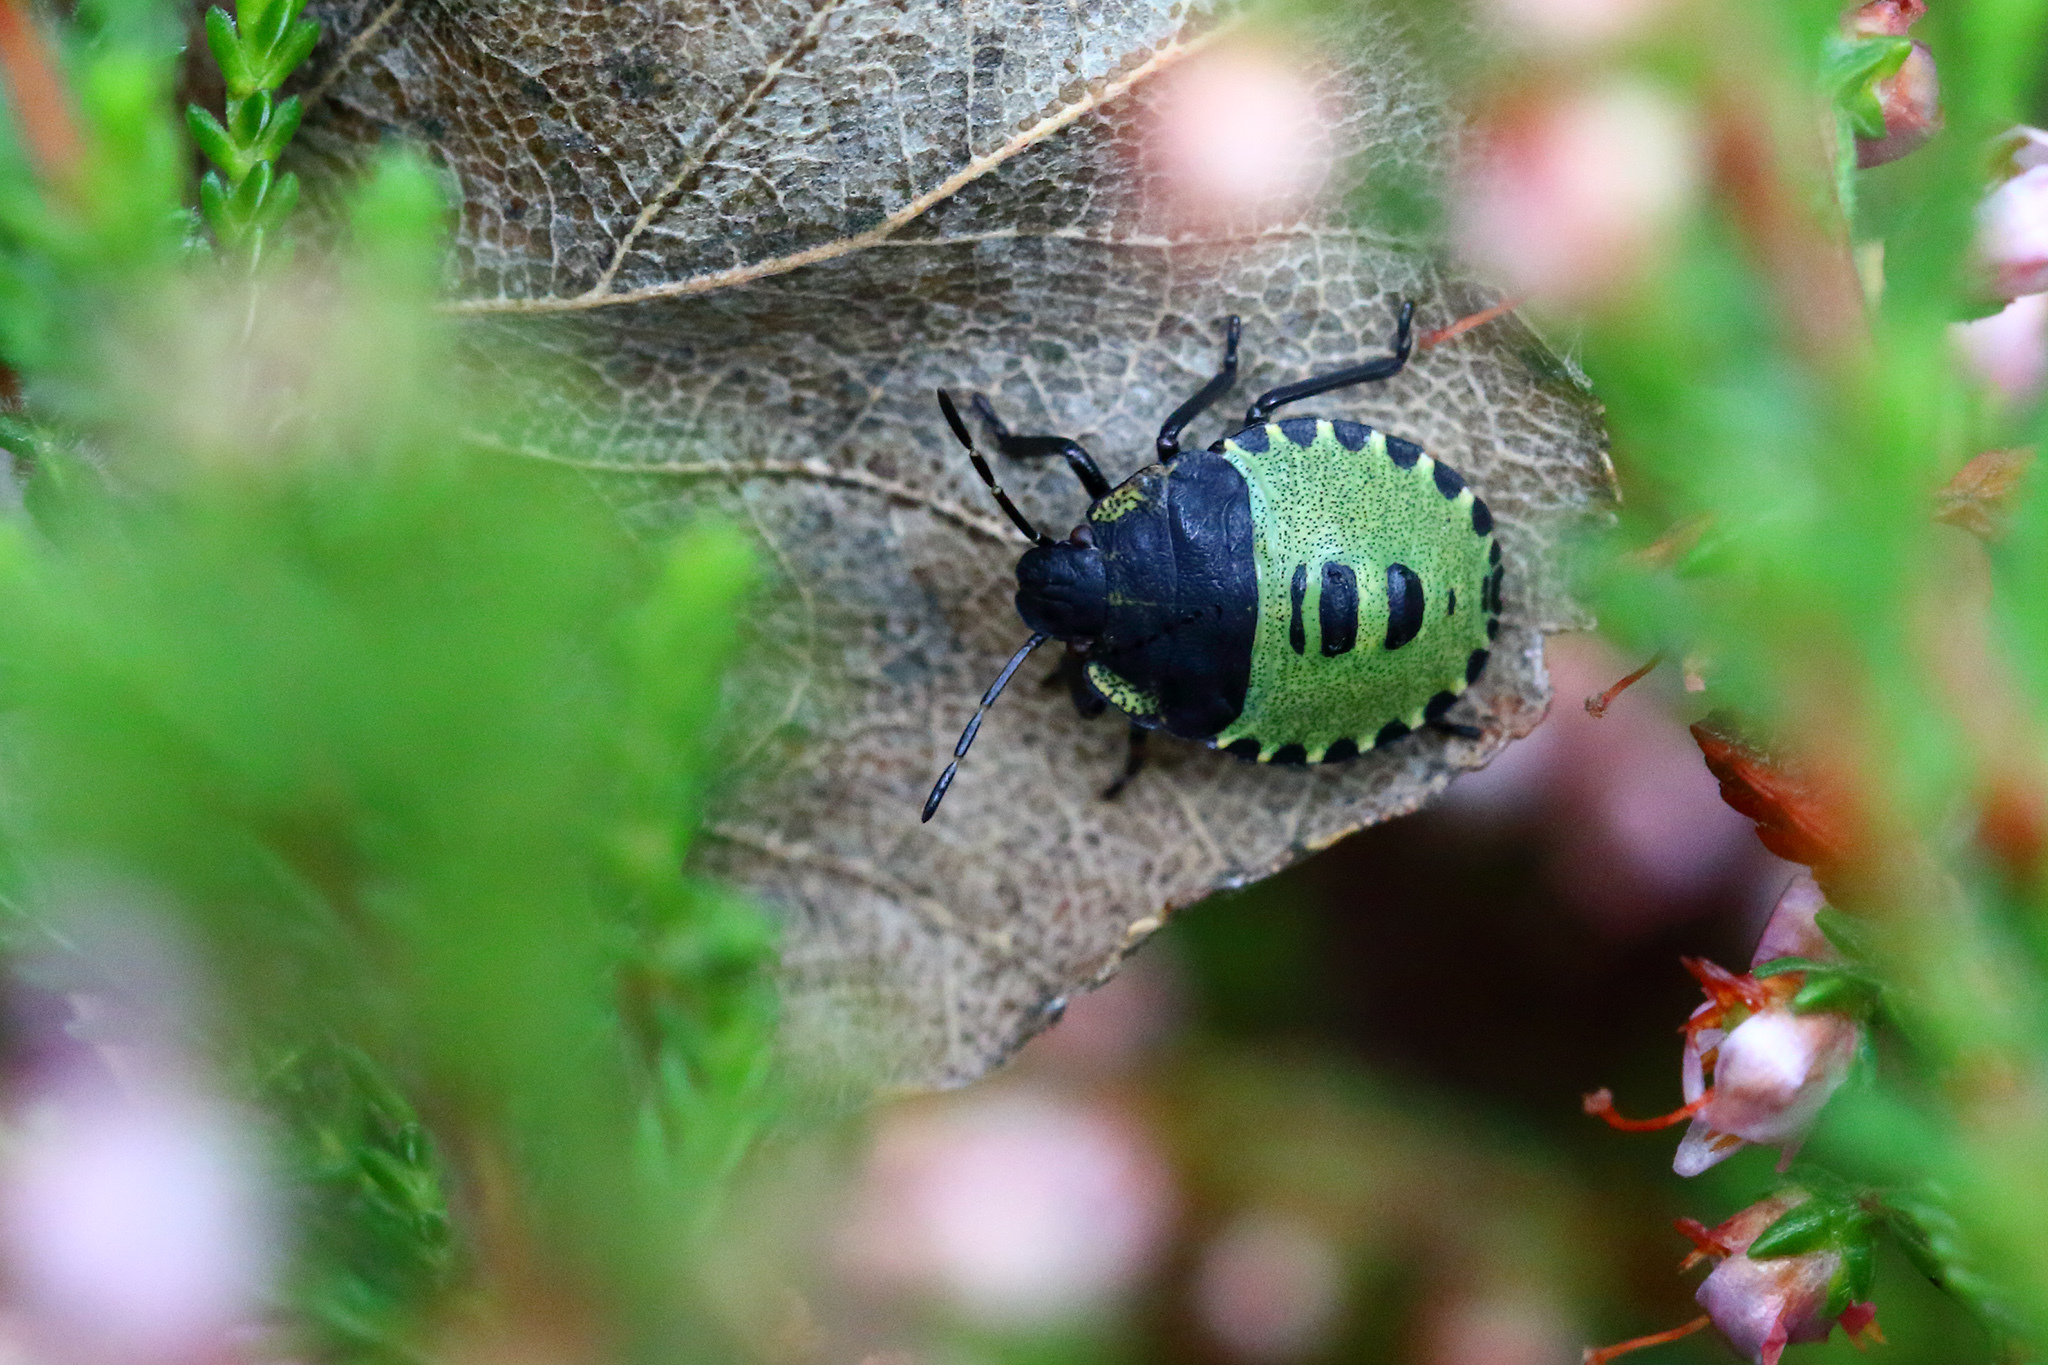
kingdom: Animalia
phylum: Arthropoda
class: Insecta
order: Hemiptera
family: Pentatomidae
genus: Palomena
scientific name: Palomena prasina
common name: Green shieldbug
